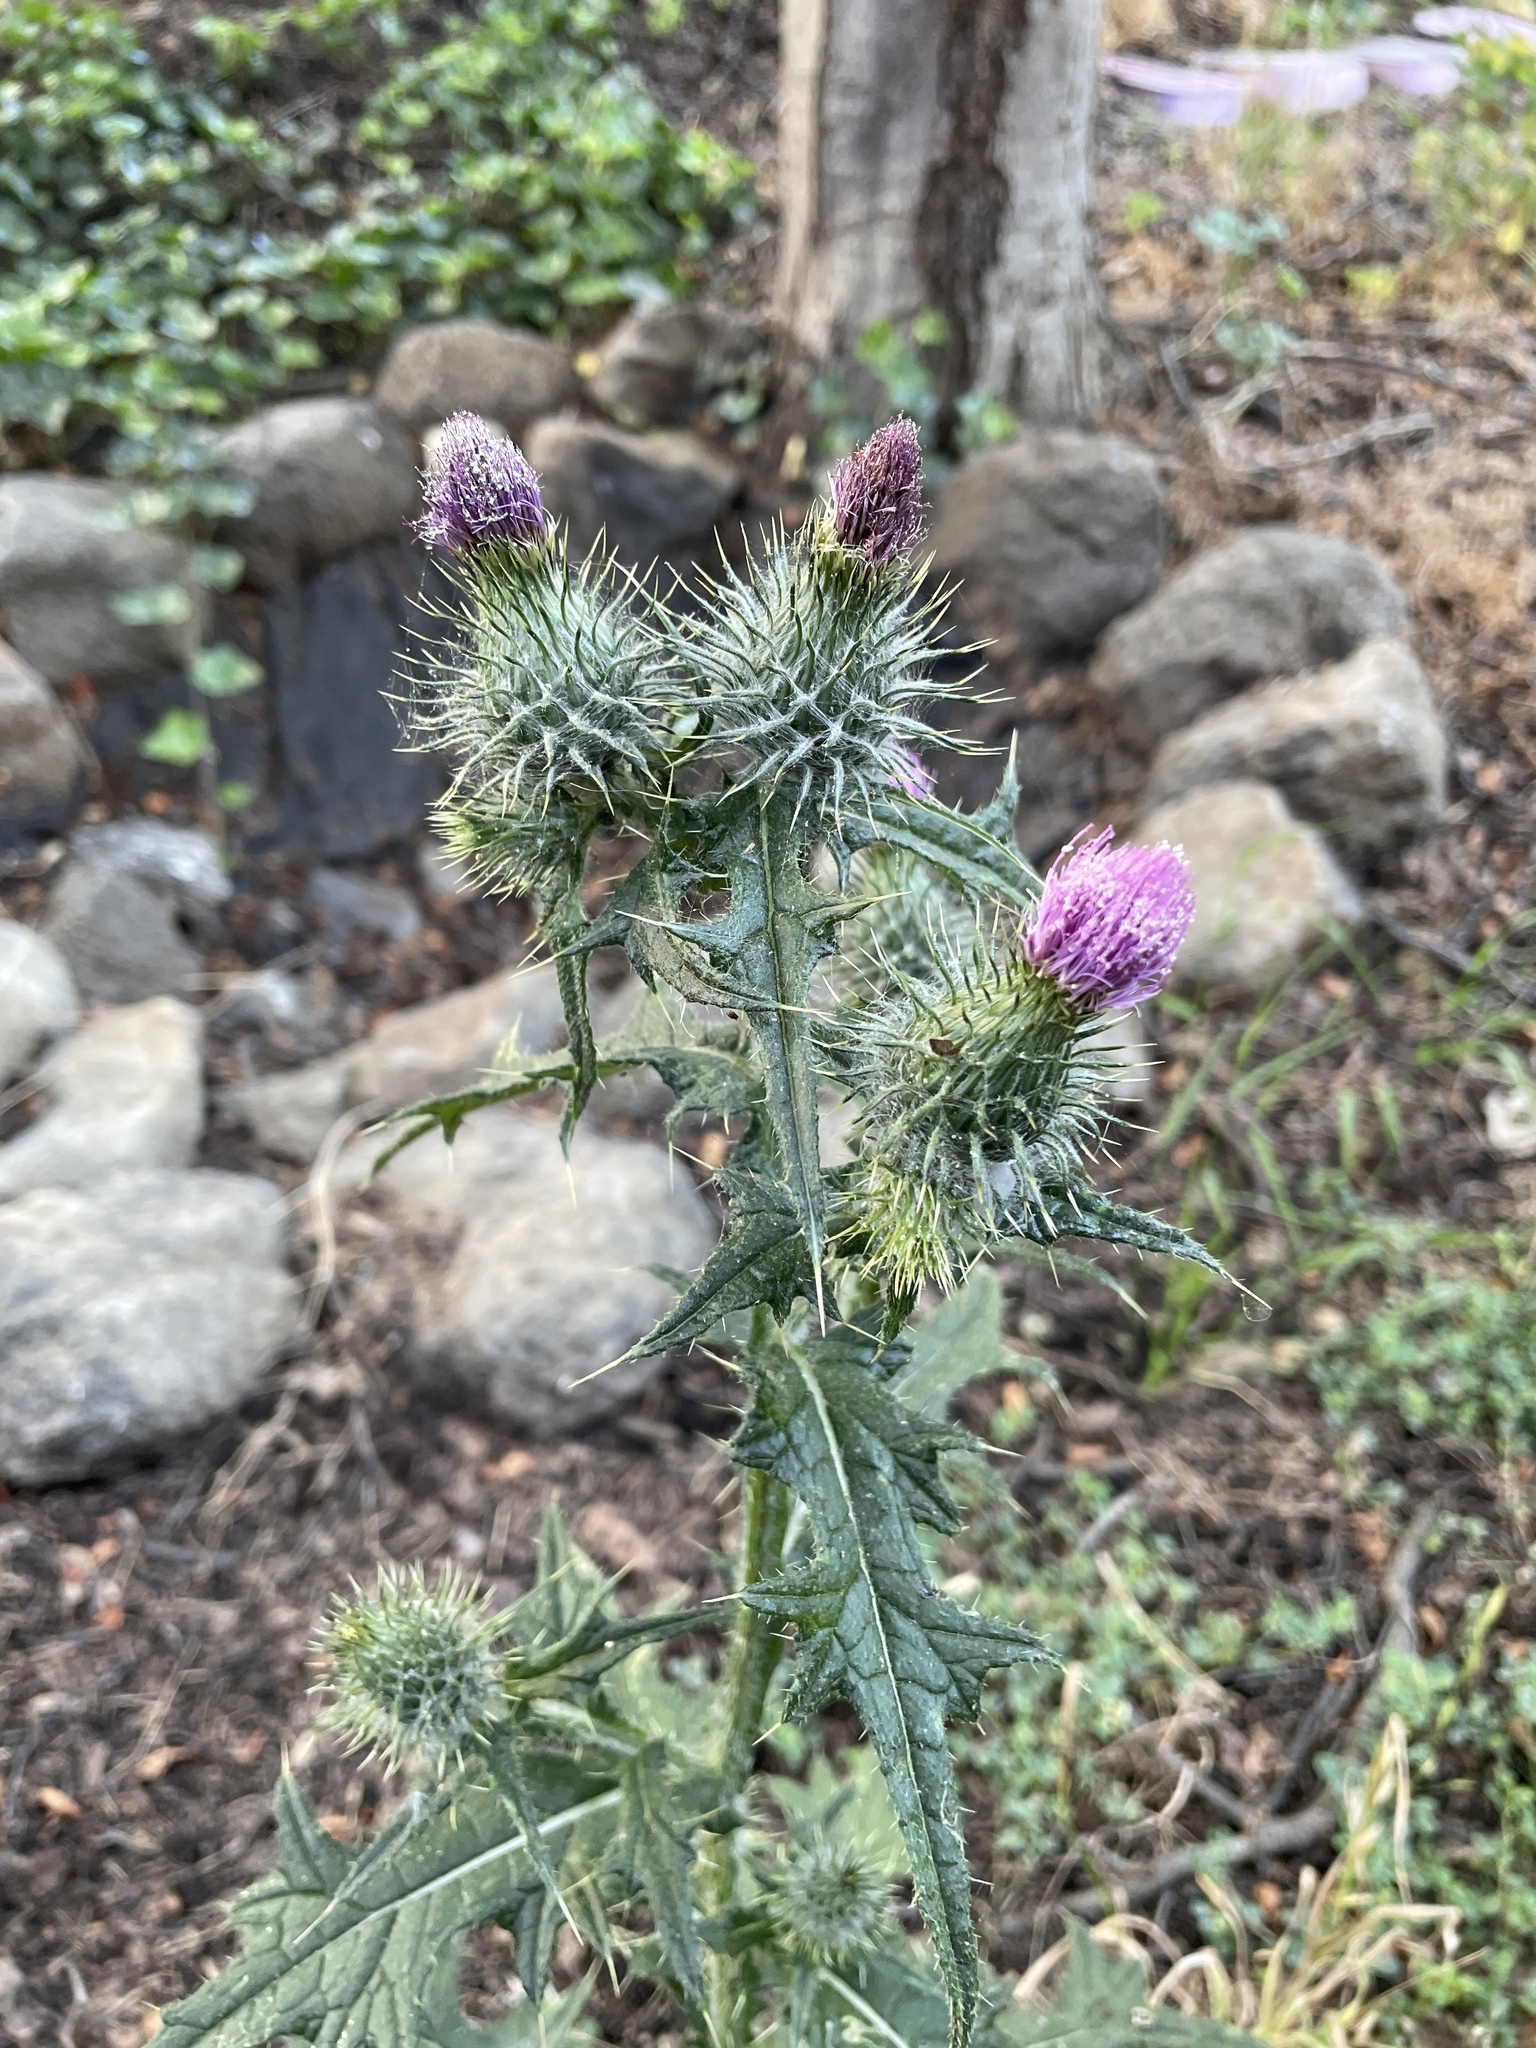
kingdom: Plantae
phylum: Tracheophyta
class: Magnoliopsida
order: Asterales
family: Asteraceae
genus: Cirsium
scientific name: Cirsium vulgare
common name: Bull thistle
